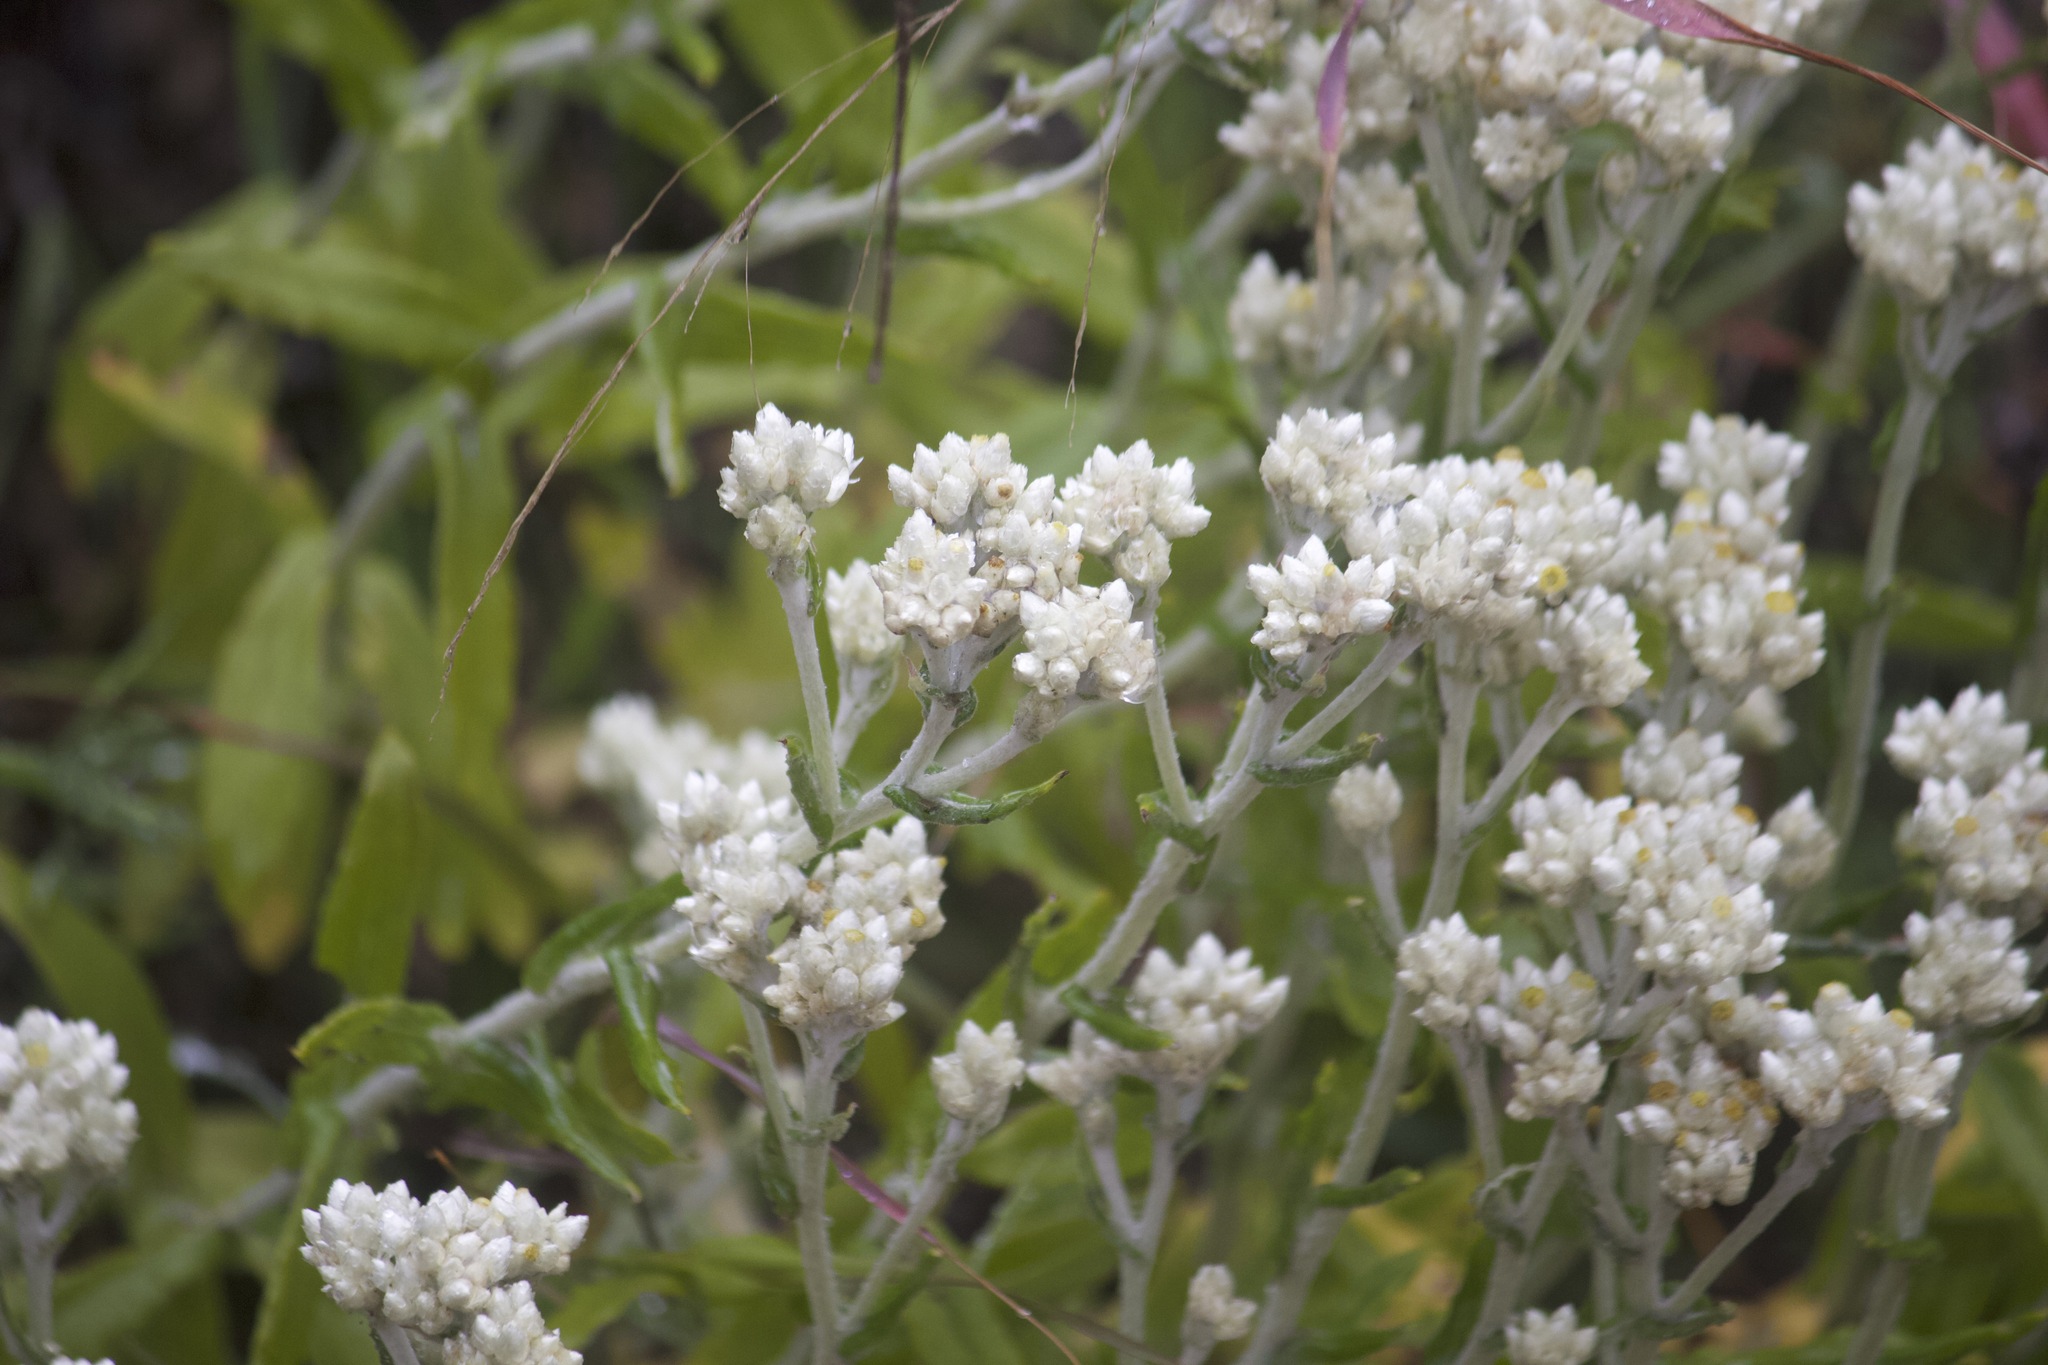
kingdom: Plantae
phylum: Tracheophyta
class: Magnoliopsida
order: Asterales
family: Asteraceae
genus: Pseudognaphalium
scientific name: Pseudognaphalium biolettii
